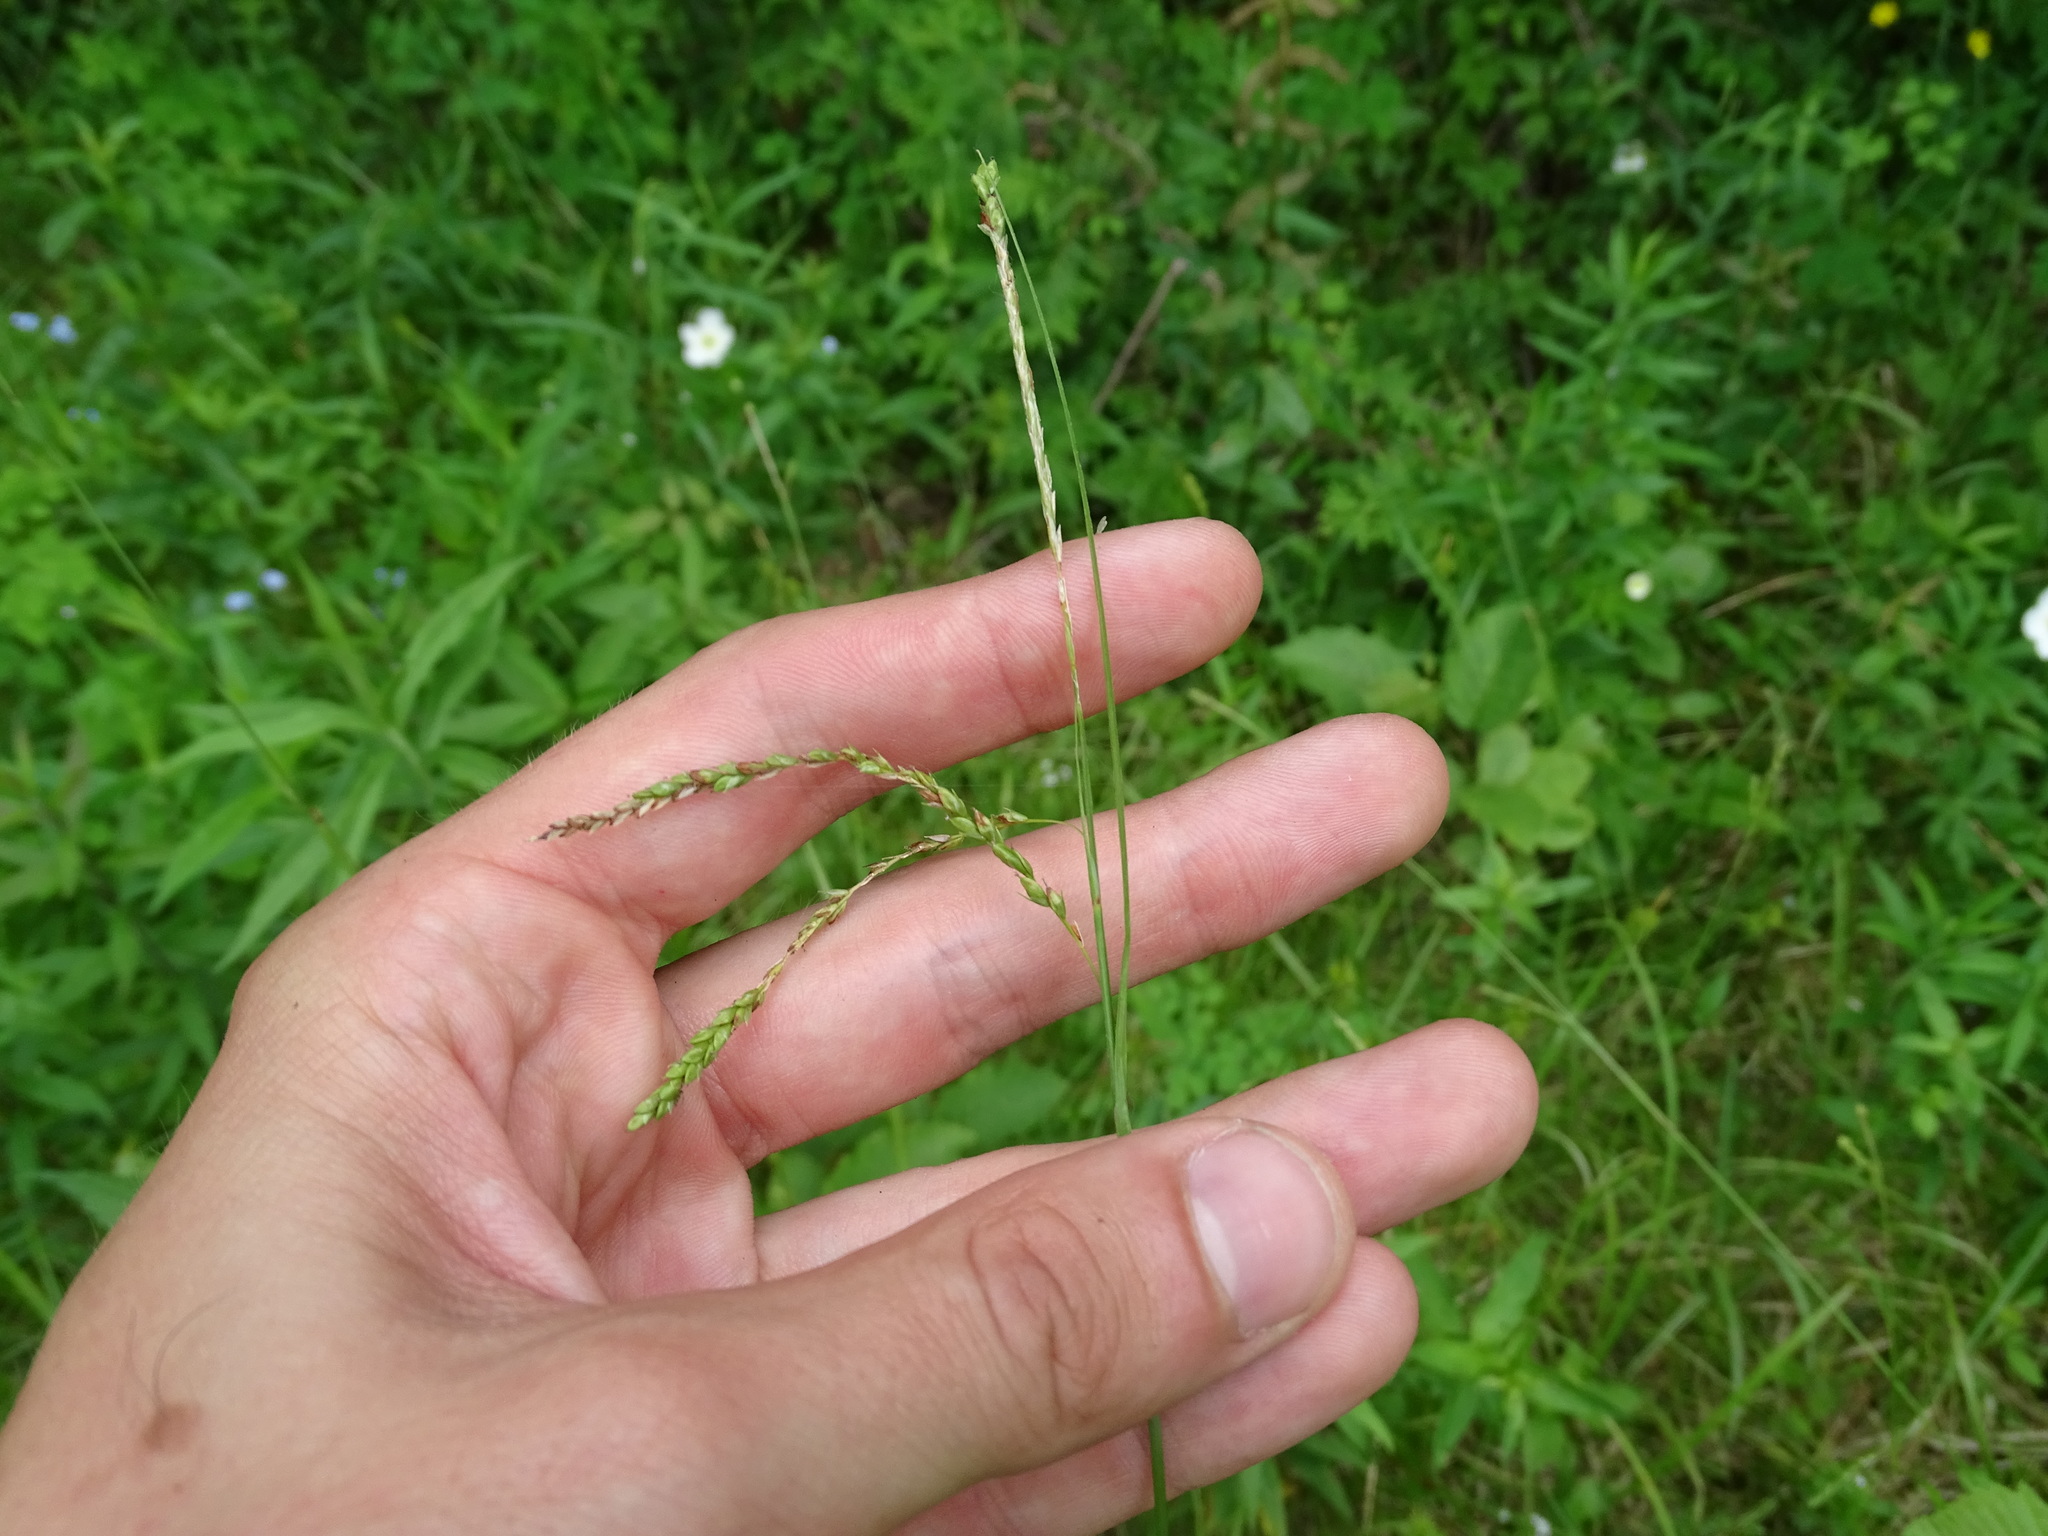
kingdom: Plantae
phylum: Tracheophyta
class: Liliopsida
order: Poales
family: Cyperaceae
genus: Carex
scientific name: Carex gracillima
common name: Graceful sedge
